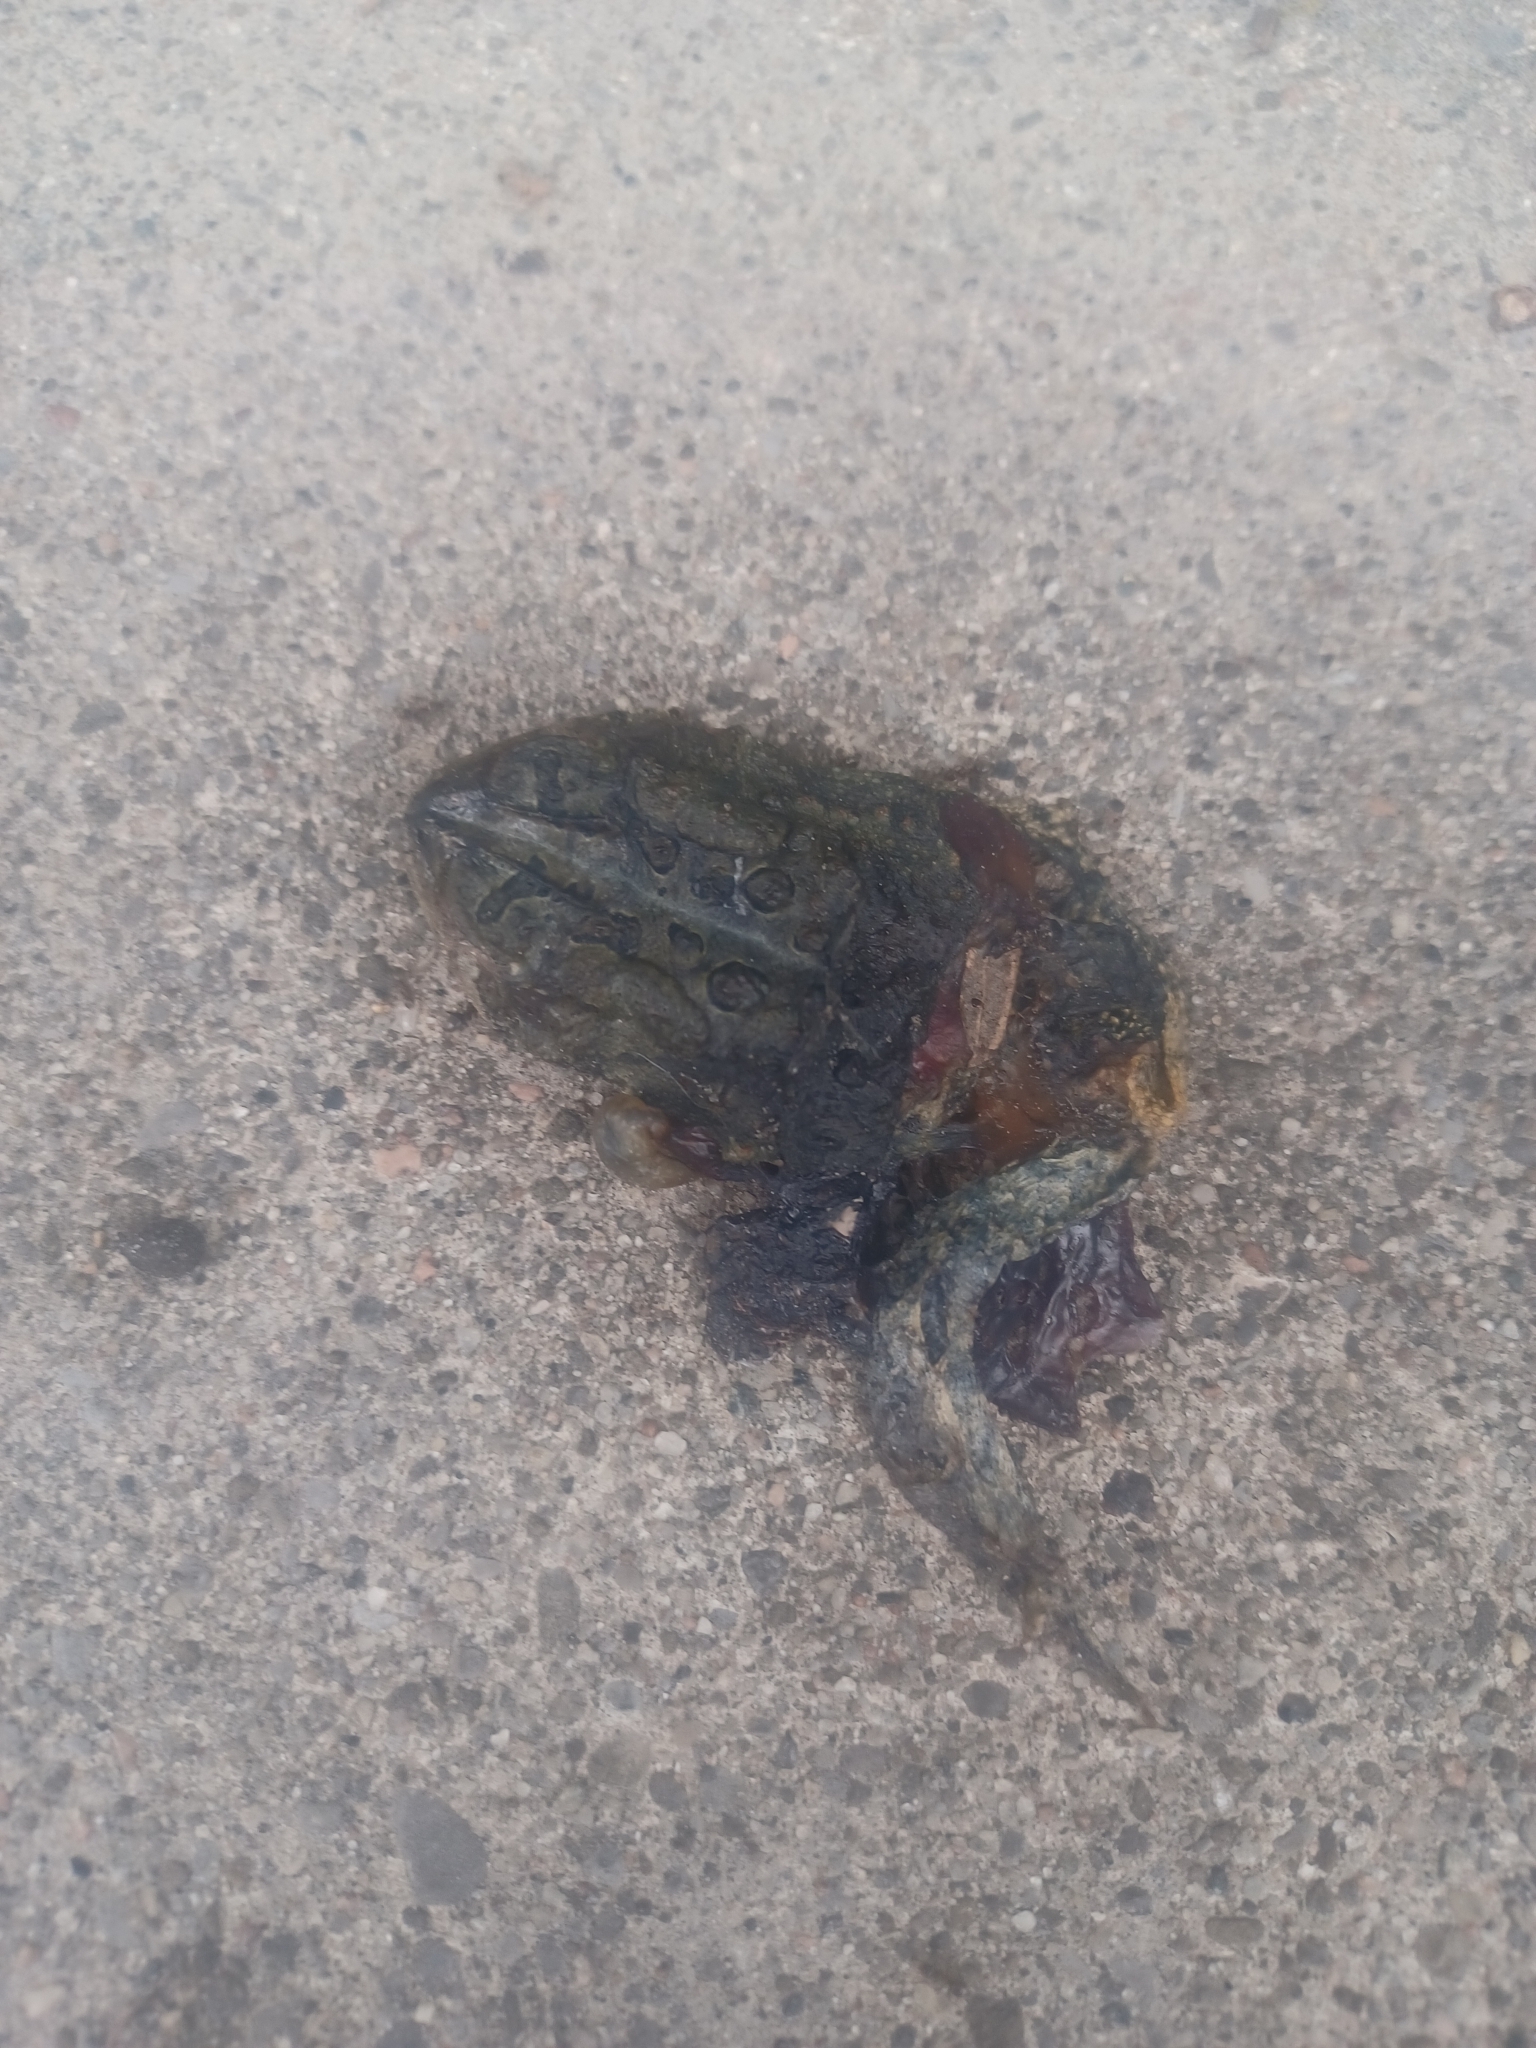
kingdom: Animalia
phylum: Chordata
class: Amphibia
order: Anura
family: Bufonidae
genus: Anaxyrus
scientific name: Anaxyrus americanus
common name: American toad
